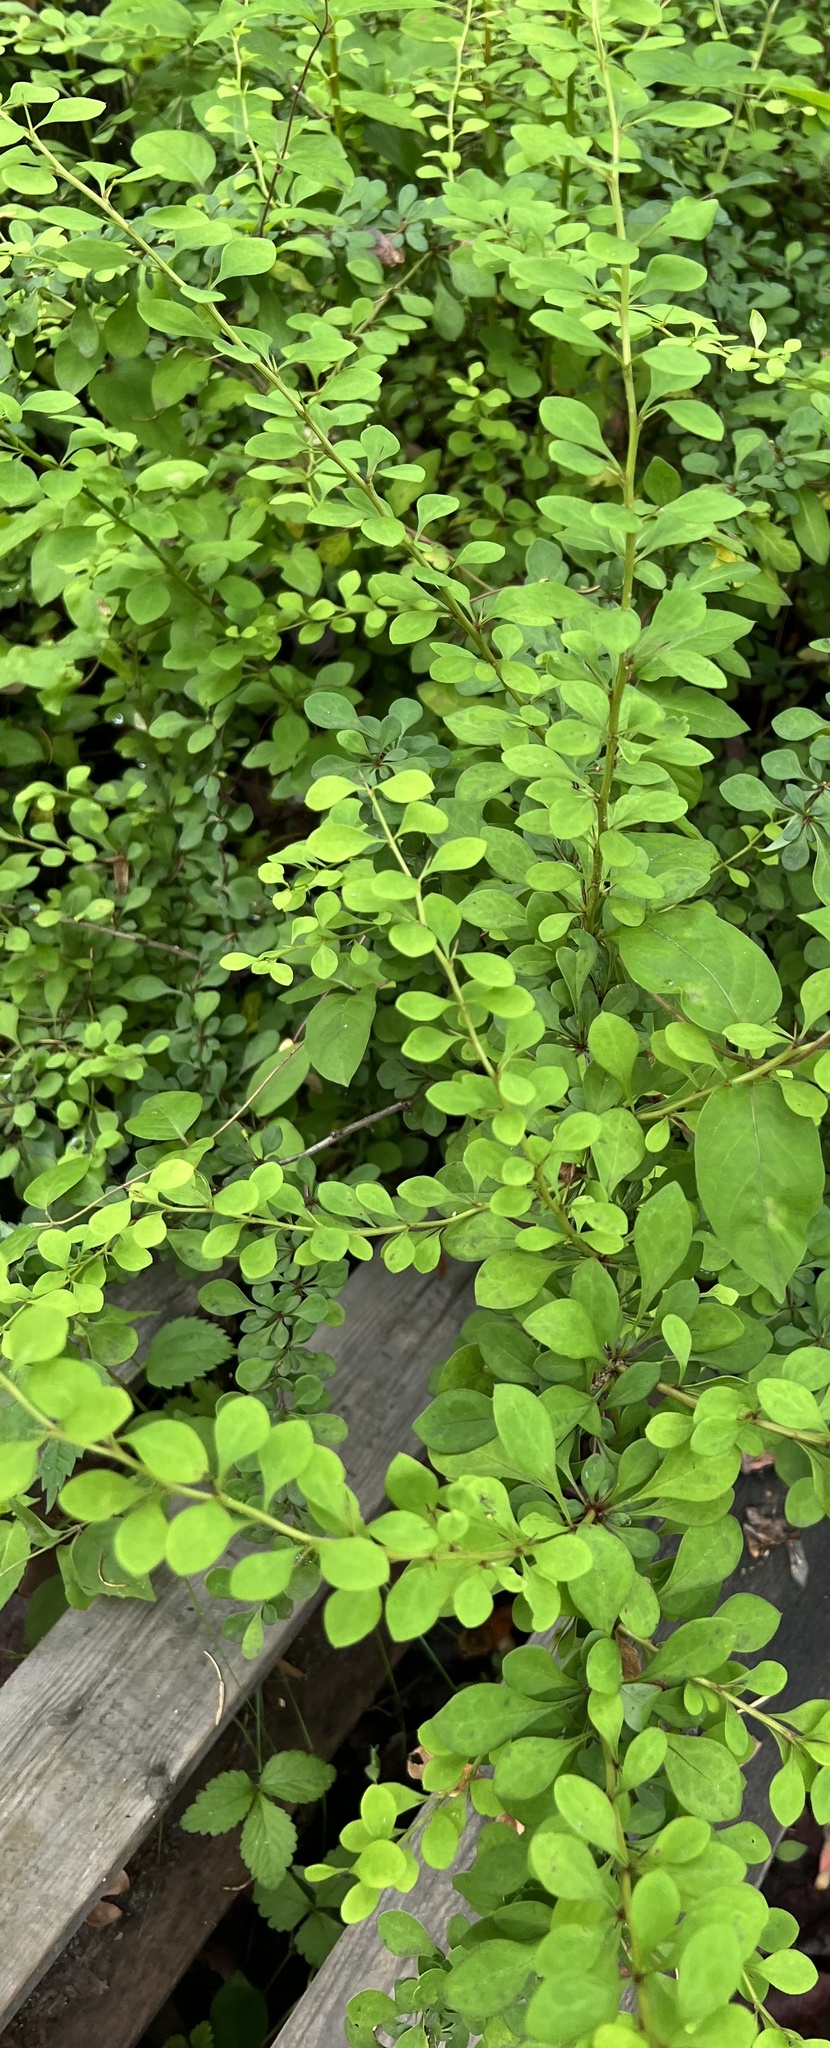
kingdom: Plantae
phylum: Tracheophyta
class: Magnoliopsida
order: Ranunculales
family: Berberidaceae
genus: Berberis
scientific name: Berberis thunbergii
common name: Japanese barberry
